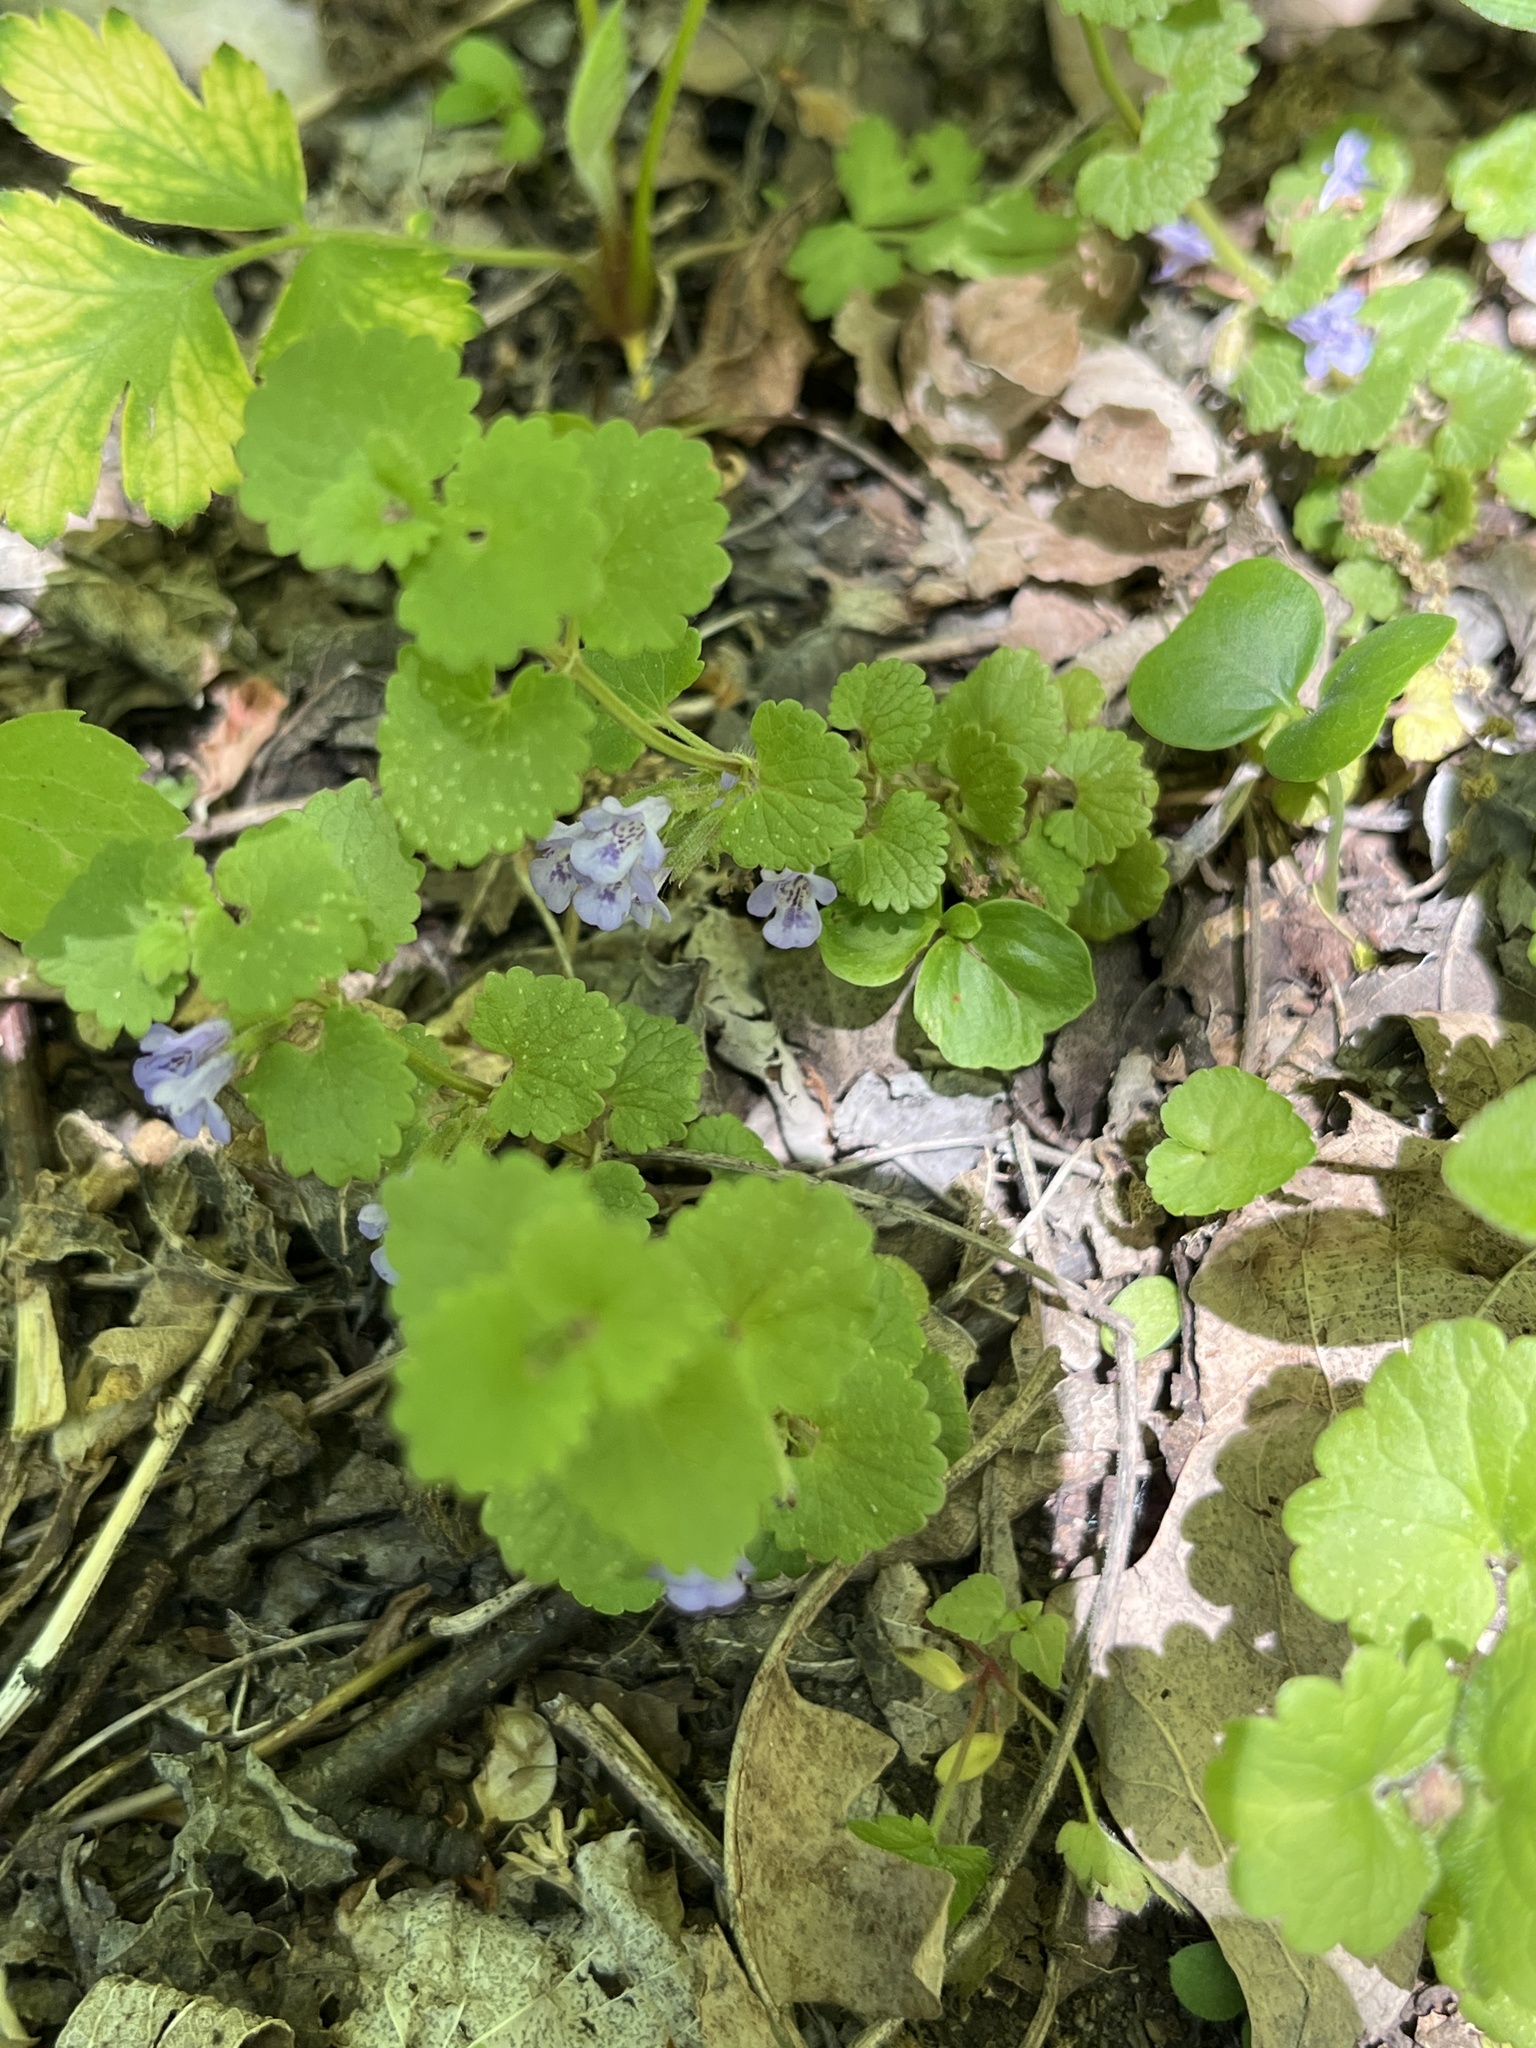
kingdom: Plantae
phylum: Tracheophyta
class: Magnoliopsida
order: Lamiales
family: Lamiaceae
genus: Glechoma
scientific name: Glechoma hederacea
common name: Ground ivy
